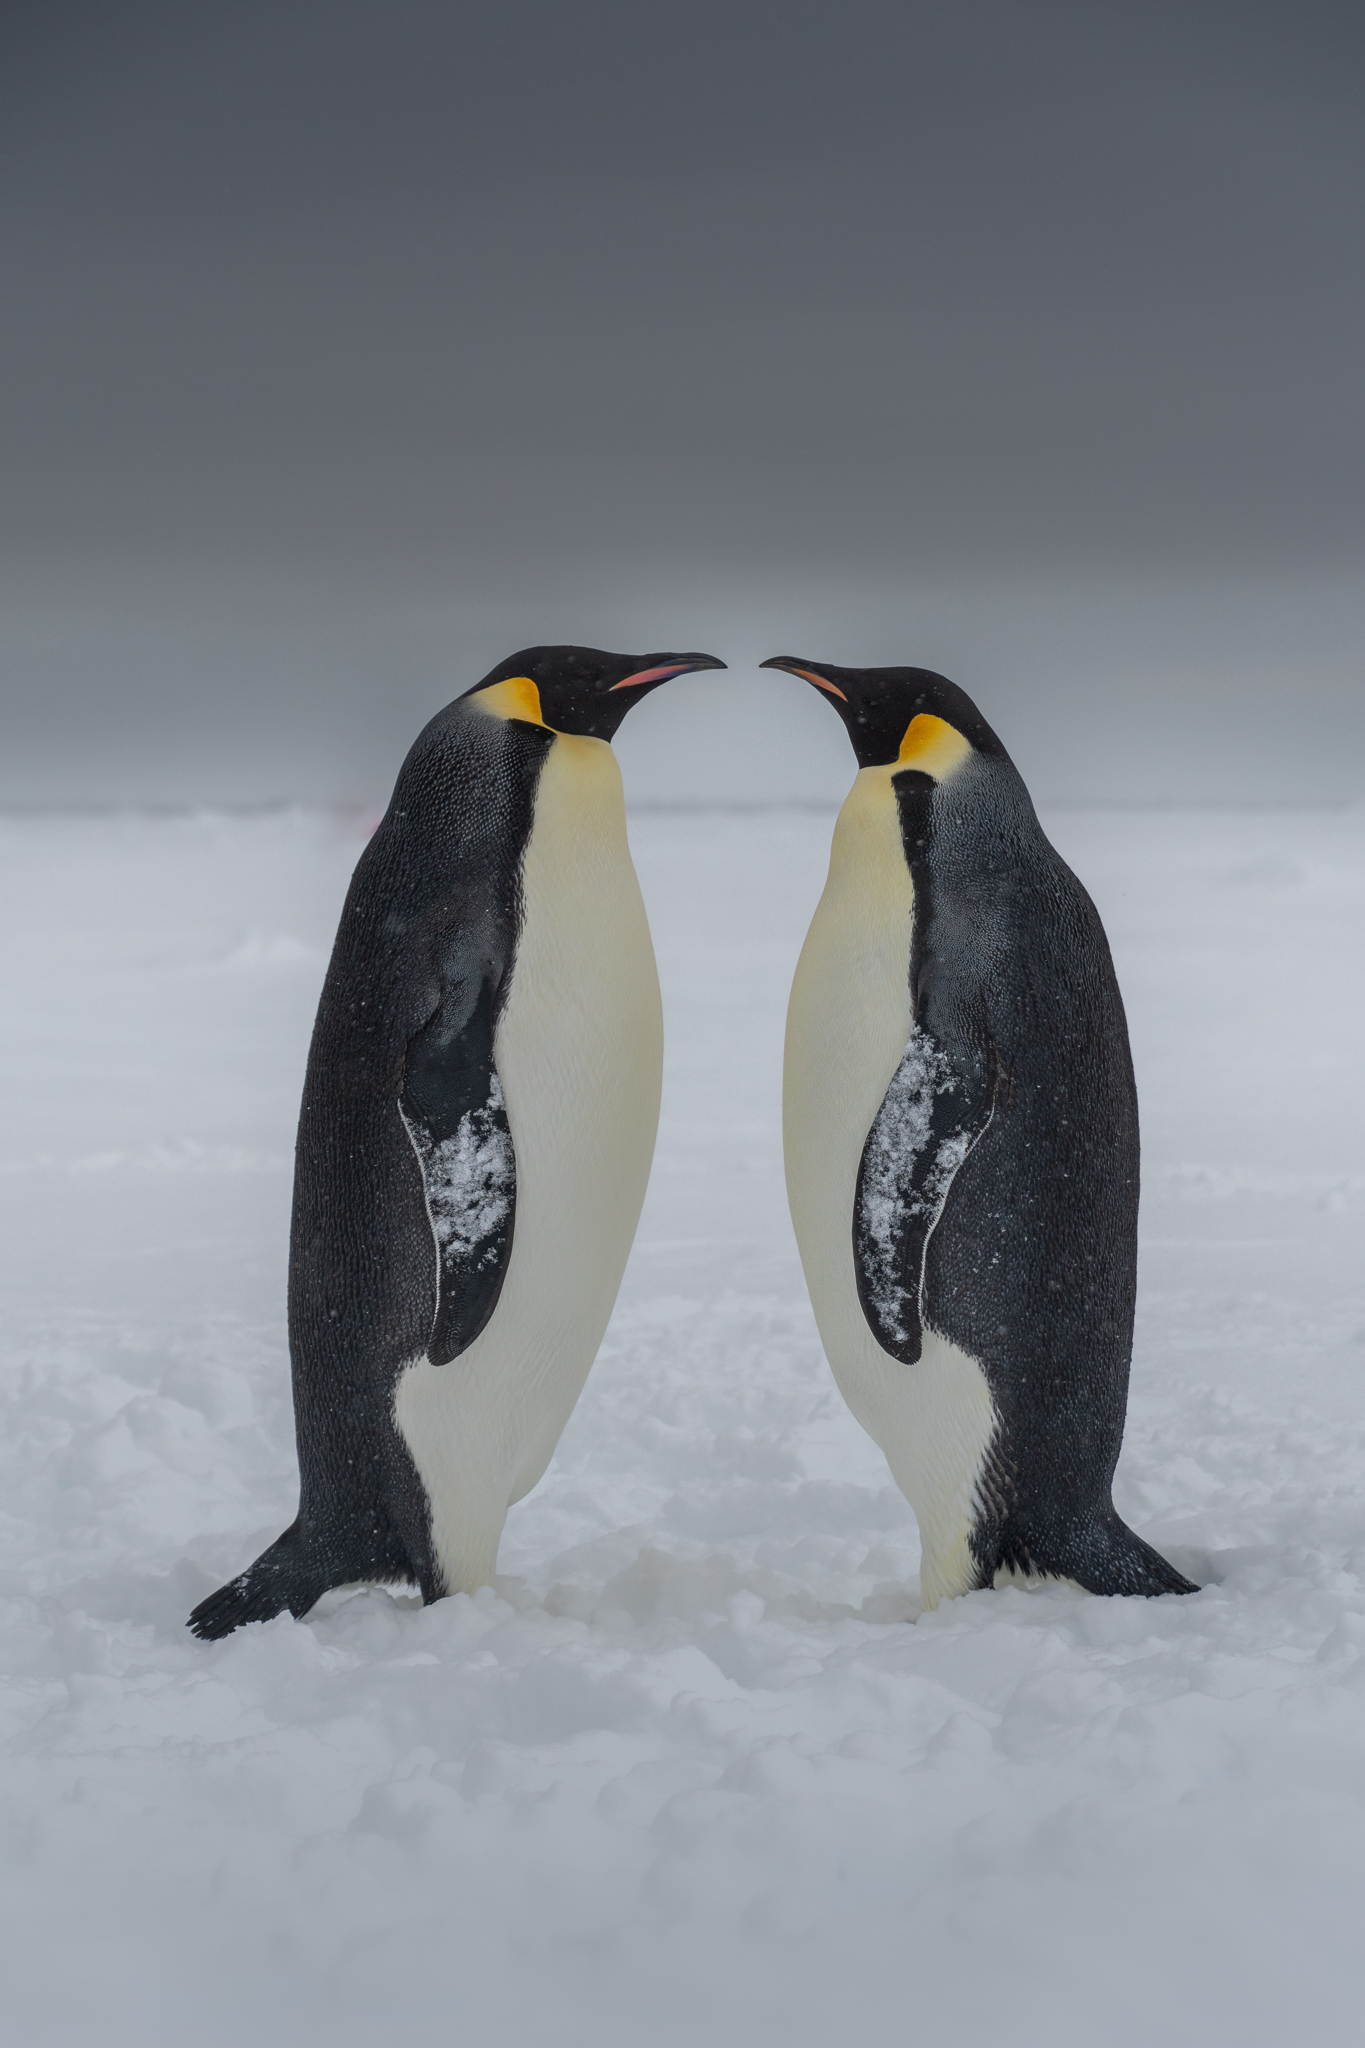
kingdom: Animalia
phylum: Chordata
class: Aves
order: Sphenisciformes
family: Spheniscidae
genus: Aptenodytes
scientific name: Aptenodytes forsteri
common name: Emperor penguin
